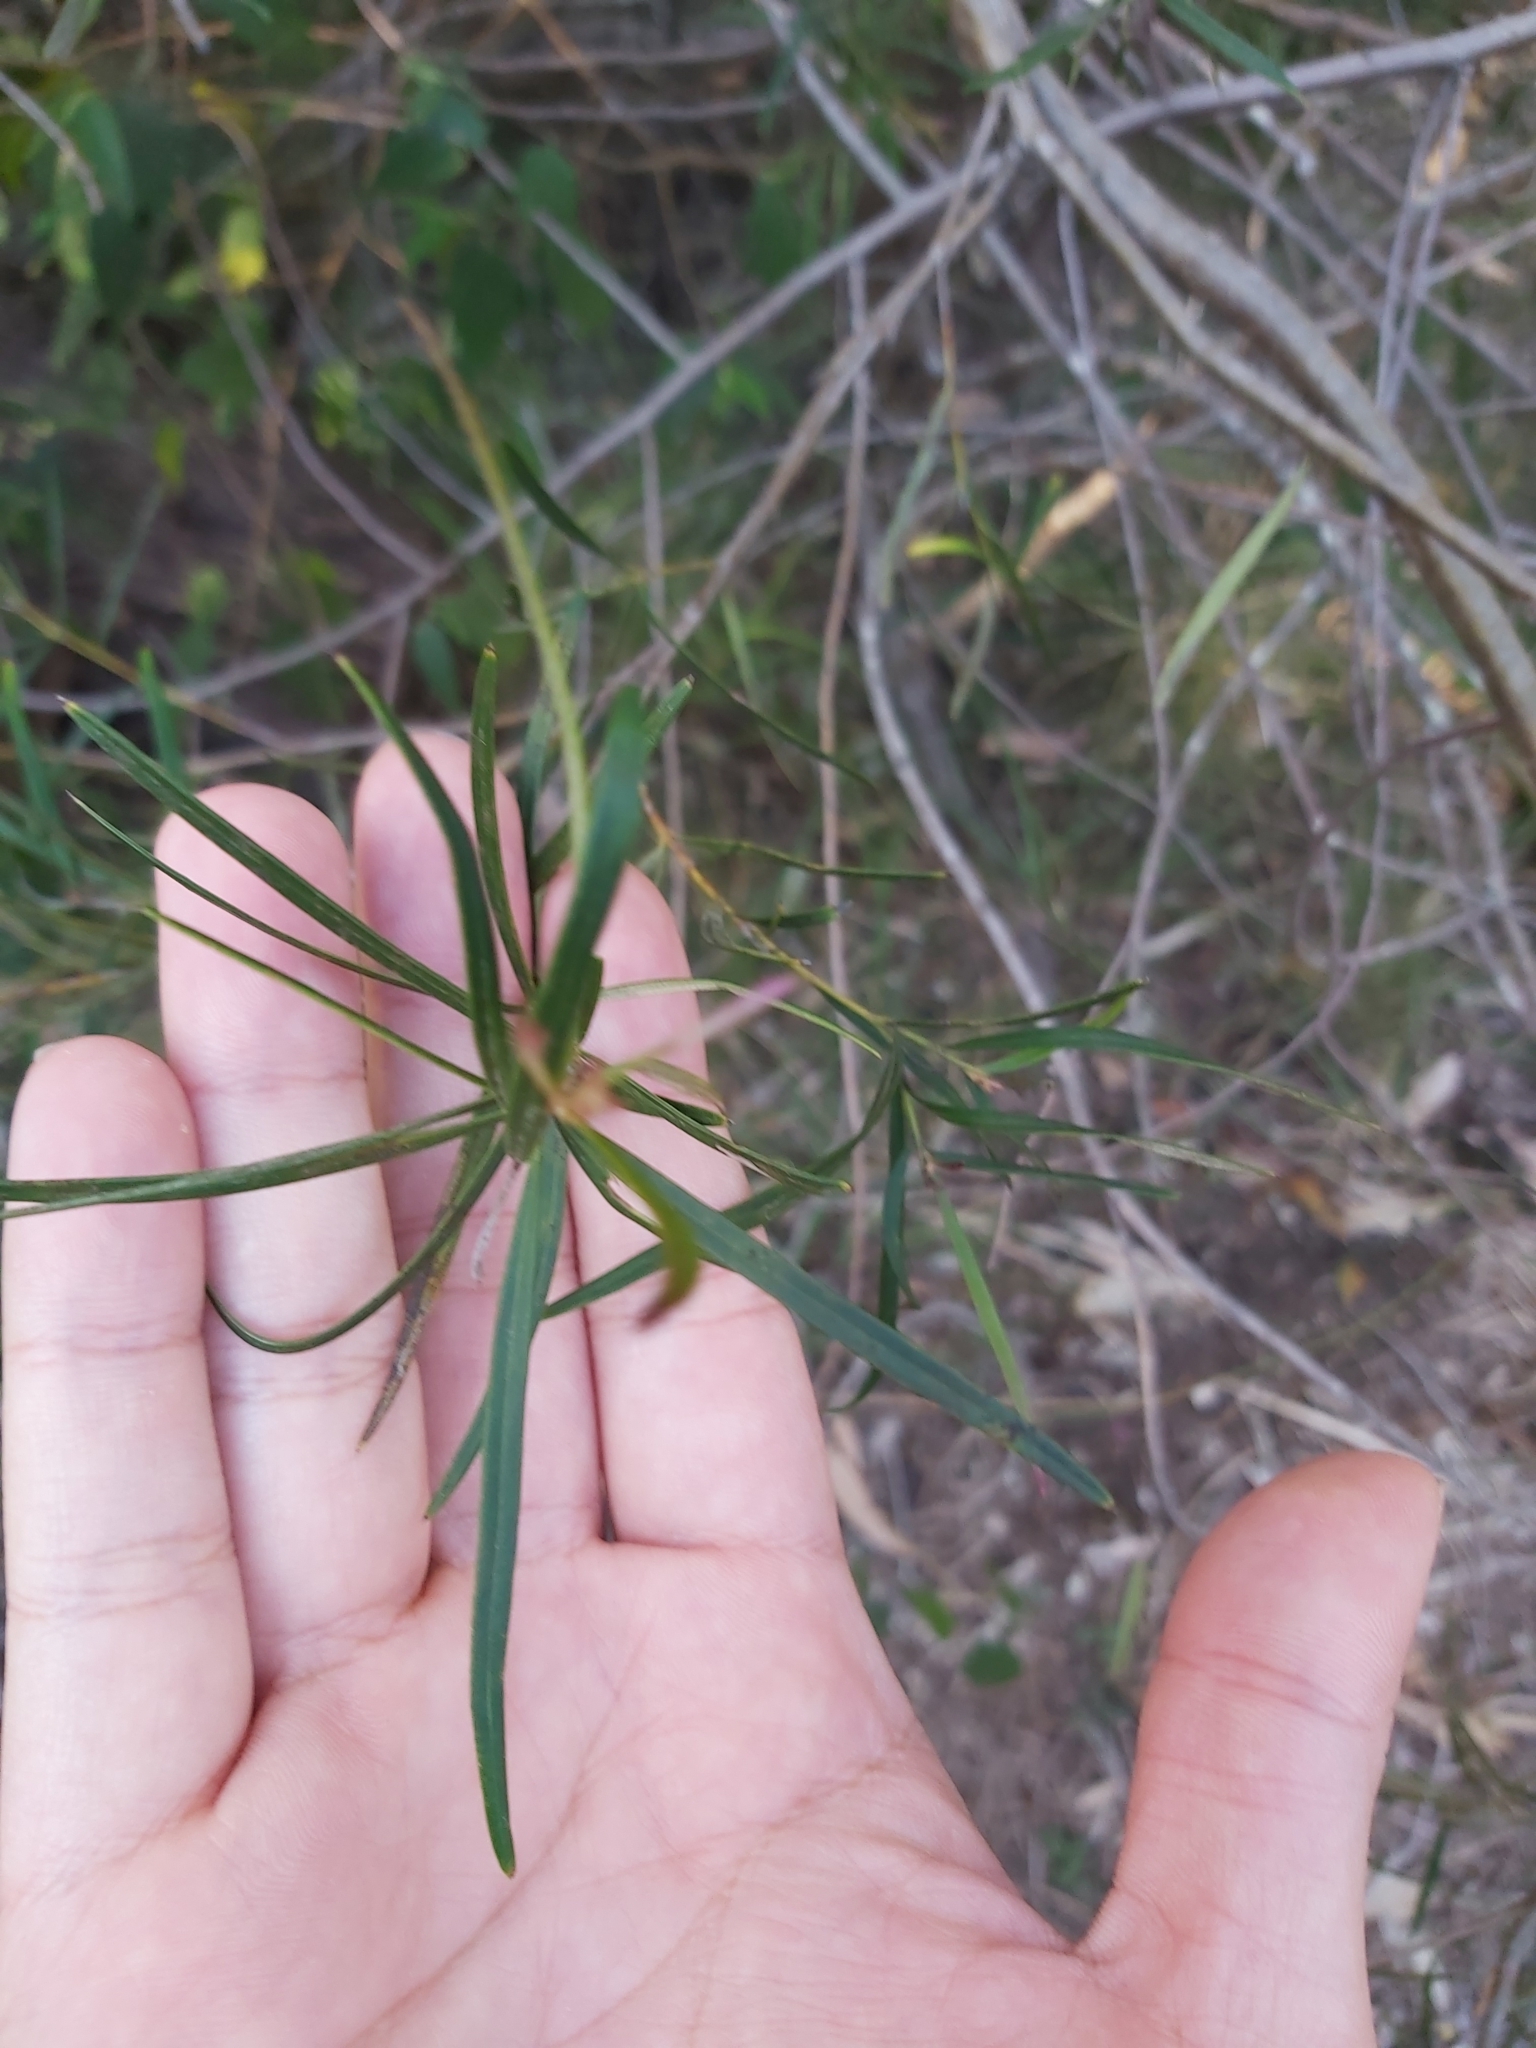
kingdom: Plantae
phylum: Tracheophyta
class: Magnoliopsida
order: Proteales
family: Proteaceae
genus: Grevillea
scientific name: Grevillea linearifolia
